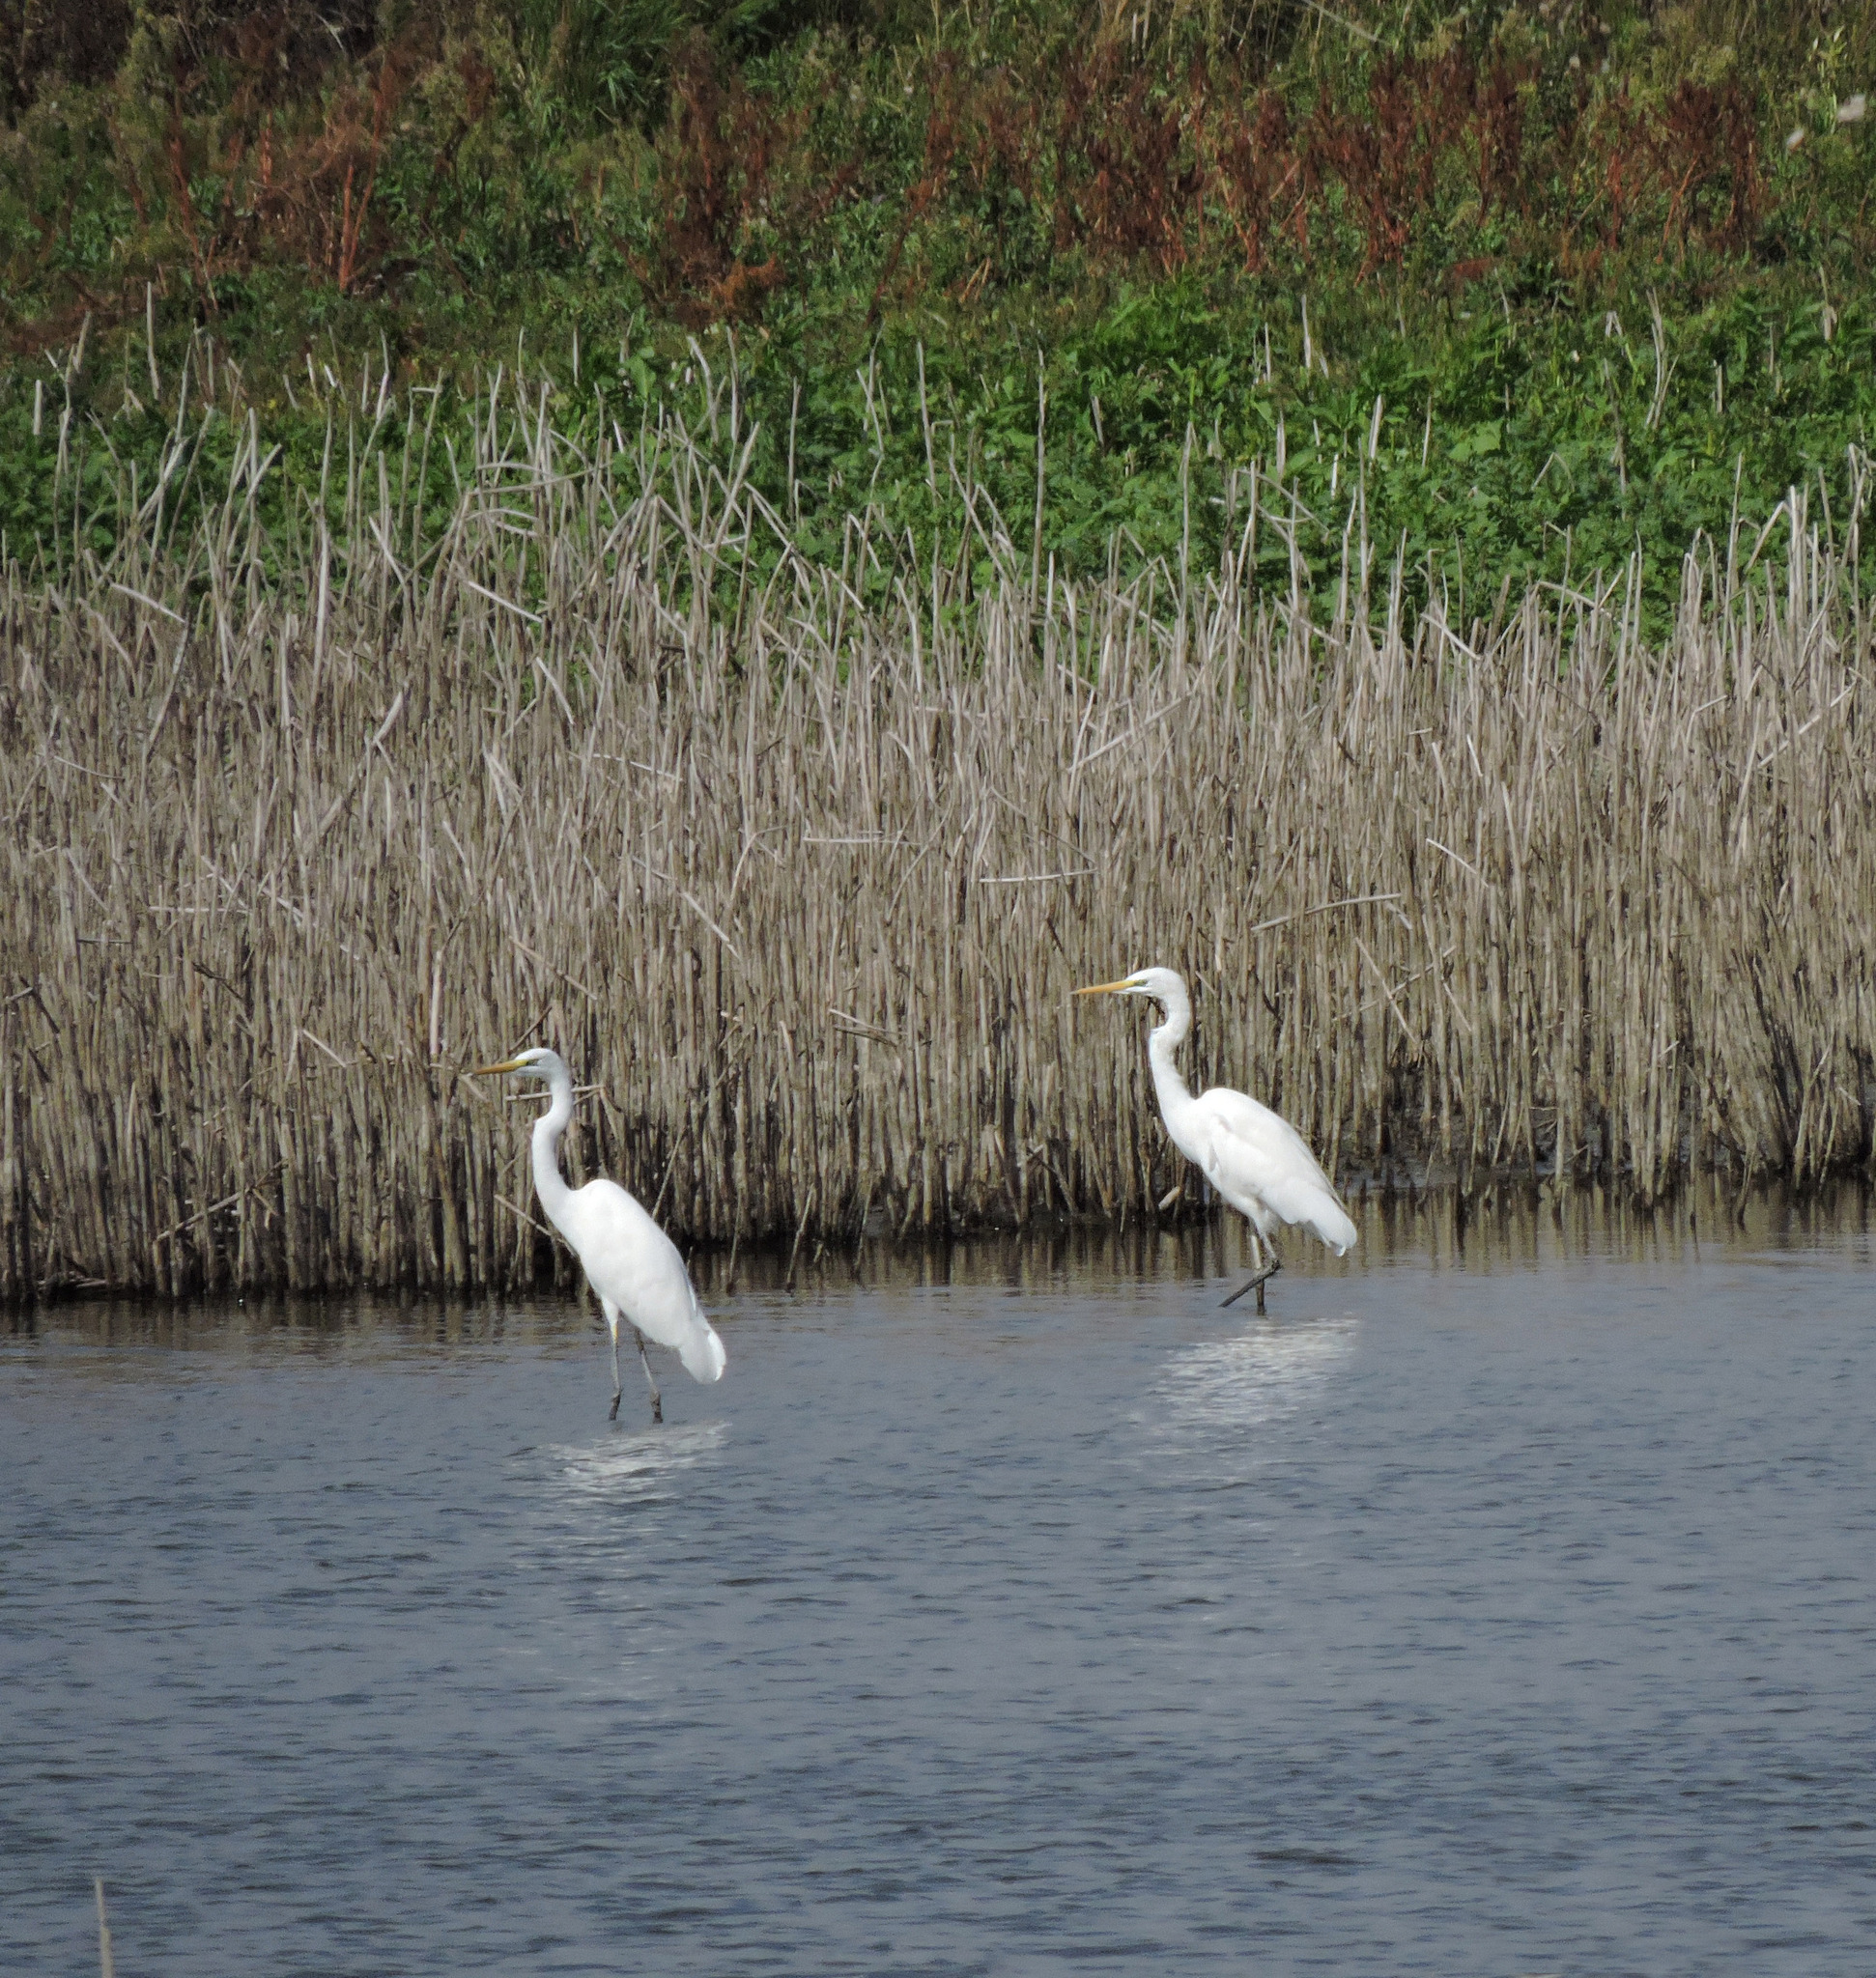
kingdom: Animalia
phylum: Chordata
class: Aves
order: Pelecaniformes
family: Ardeidae
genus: Ardea
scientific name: Ardea alba
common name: Great egret
